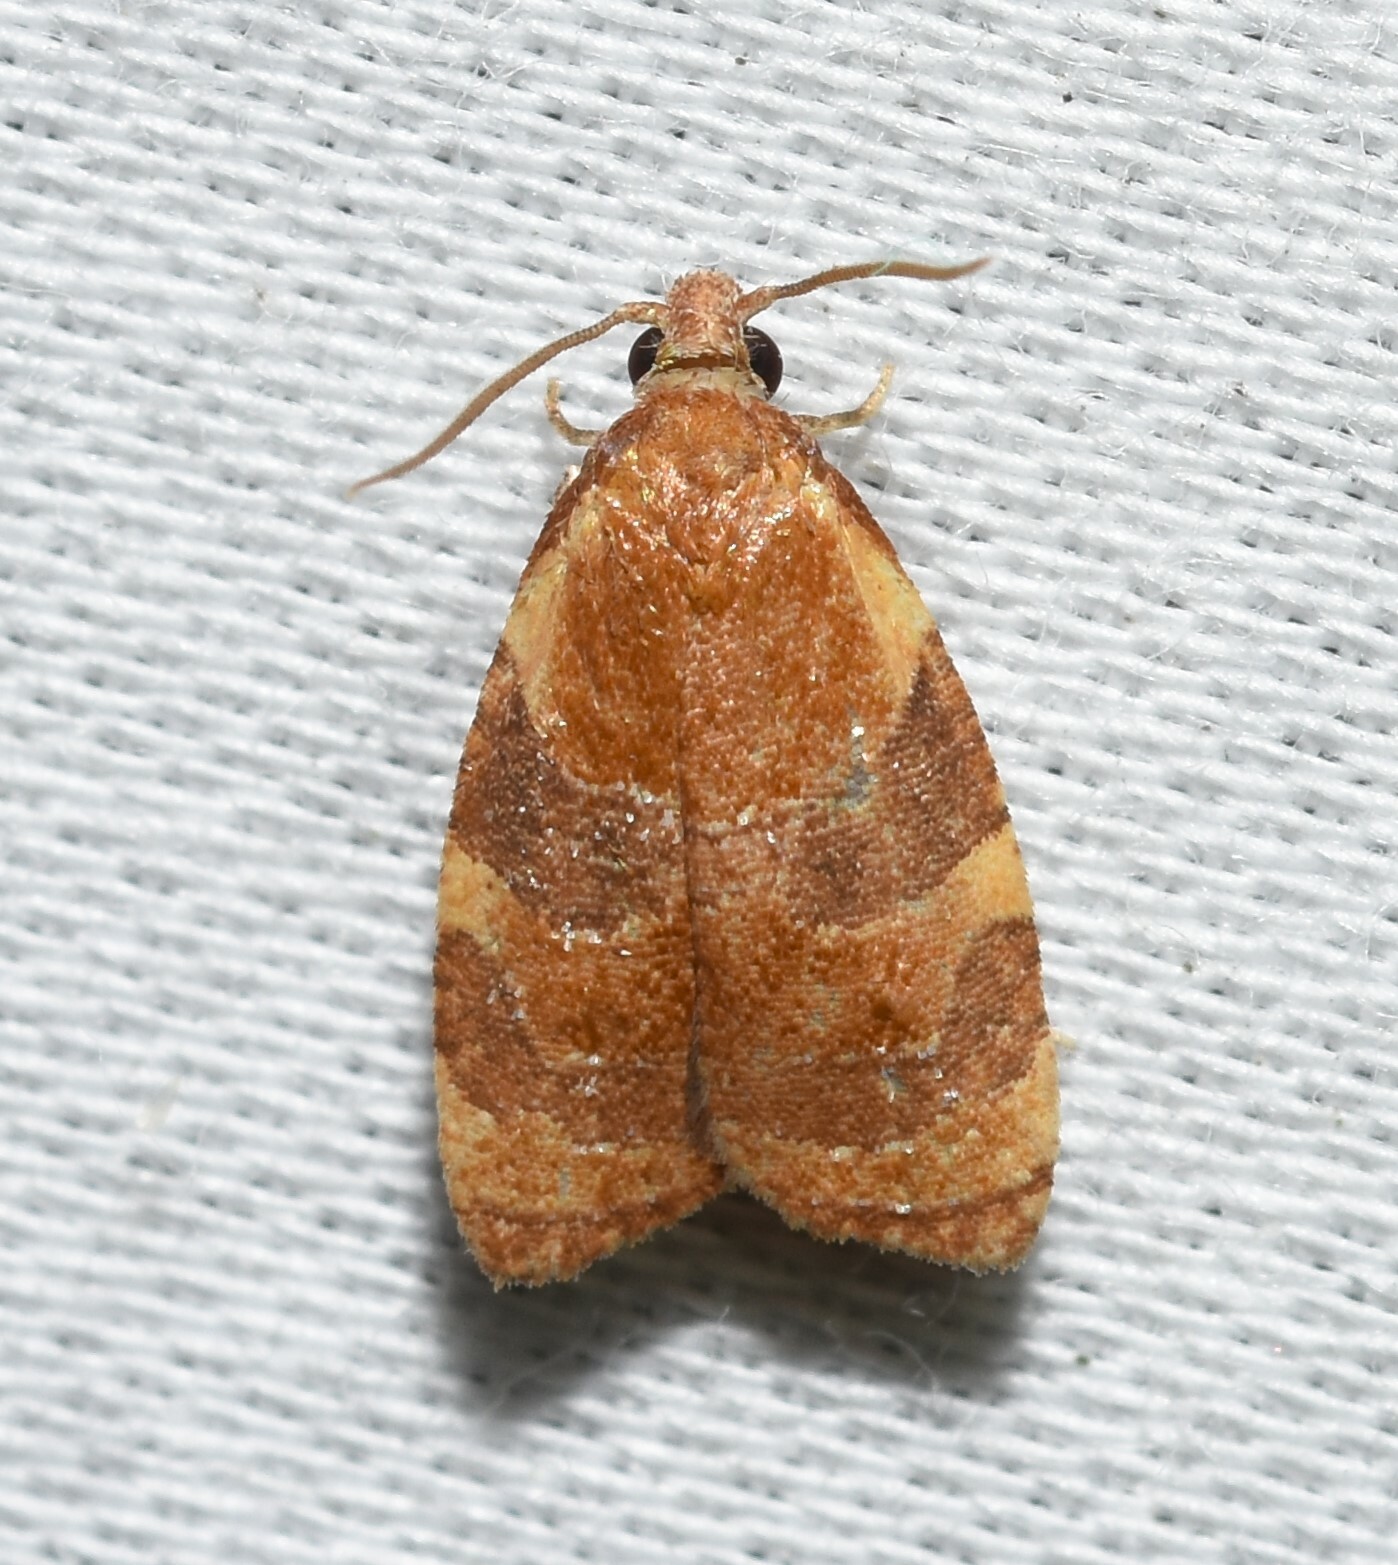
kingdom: Animalia
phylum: Arthropoda
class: Insecta
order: Lepidoptera
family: Tortricidae
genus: Cenopis
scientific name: Cenopis diluticostana
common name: Spring dead-leaf roller moth
